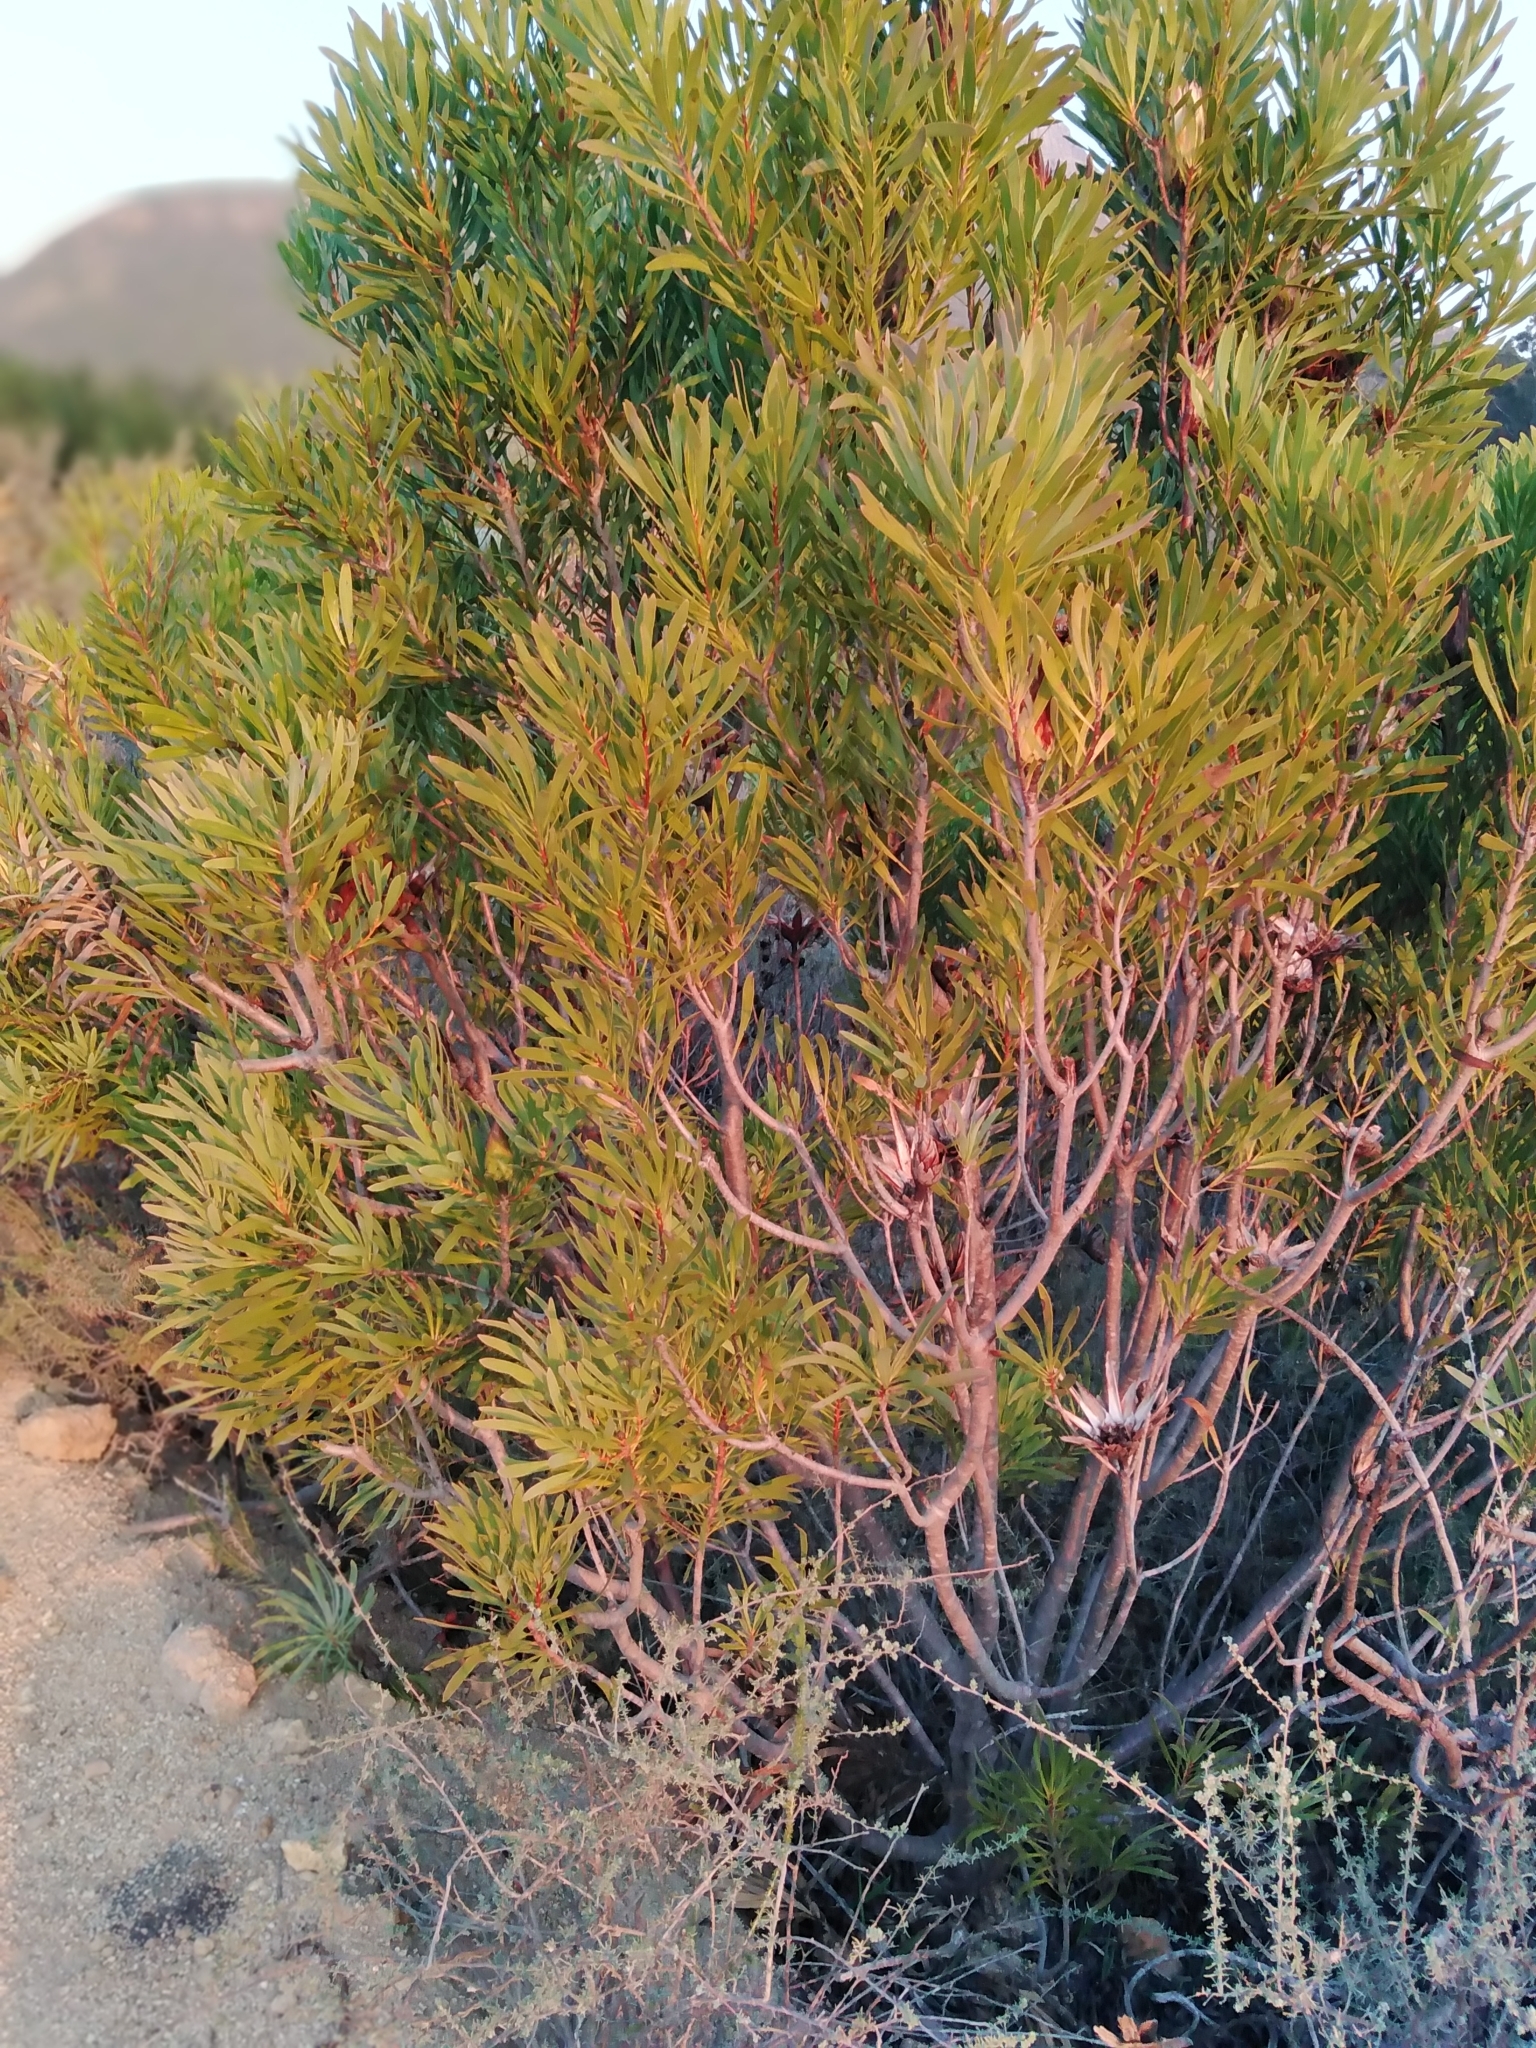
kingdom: Plantae
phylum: Tracheophyta
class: Magnoliopsida
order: Proteales
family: Proteaceae
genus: Protea
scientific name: Protea repens
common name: Sugarbush
